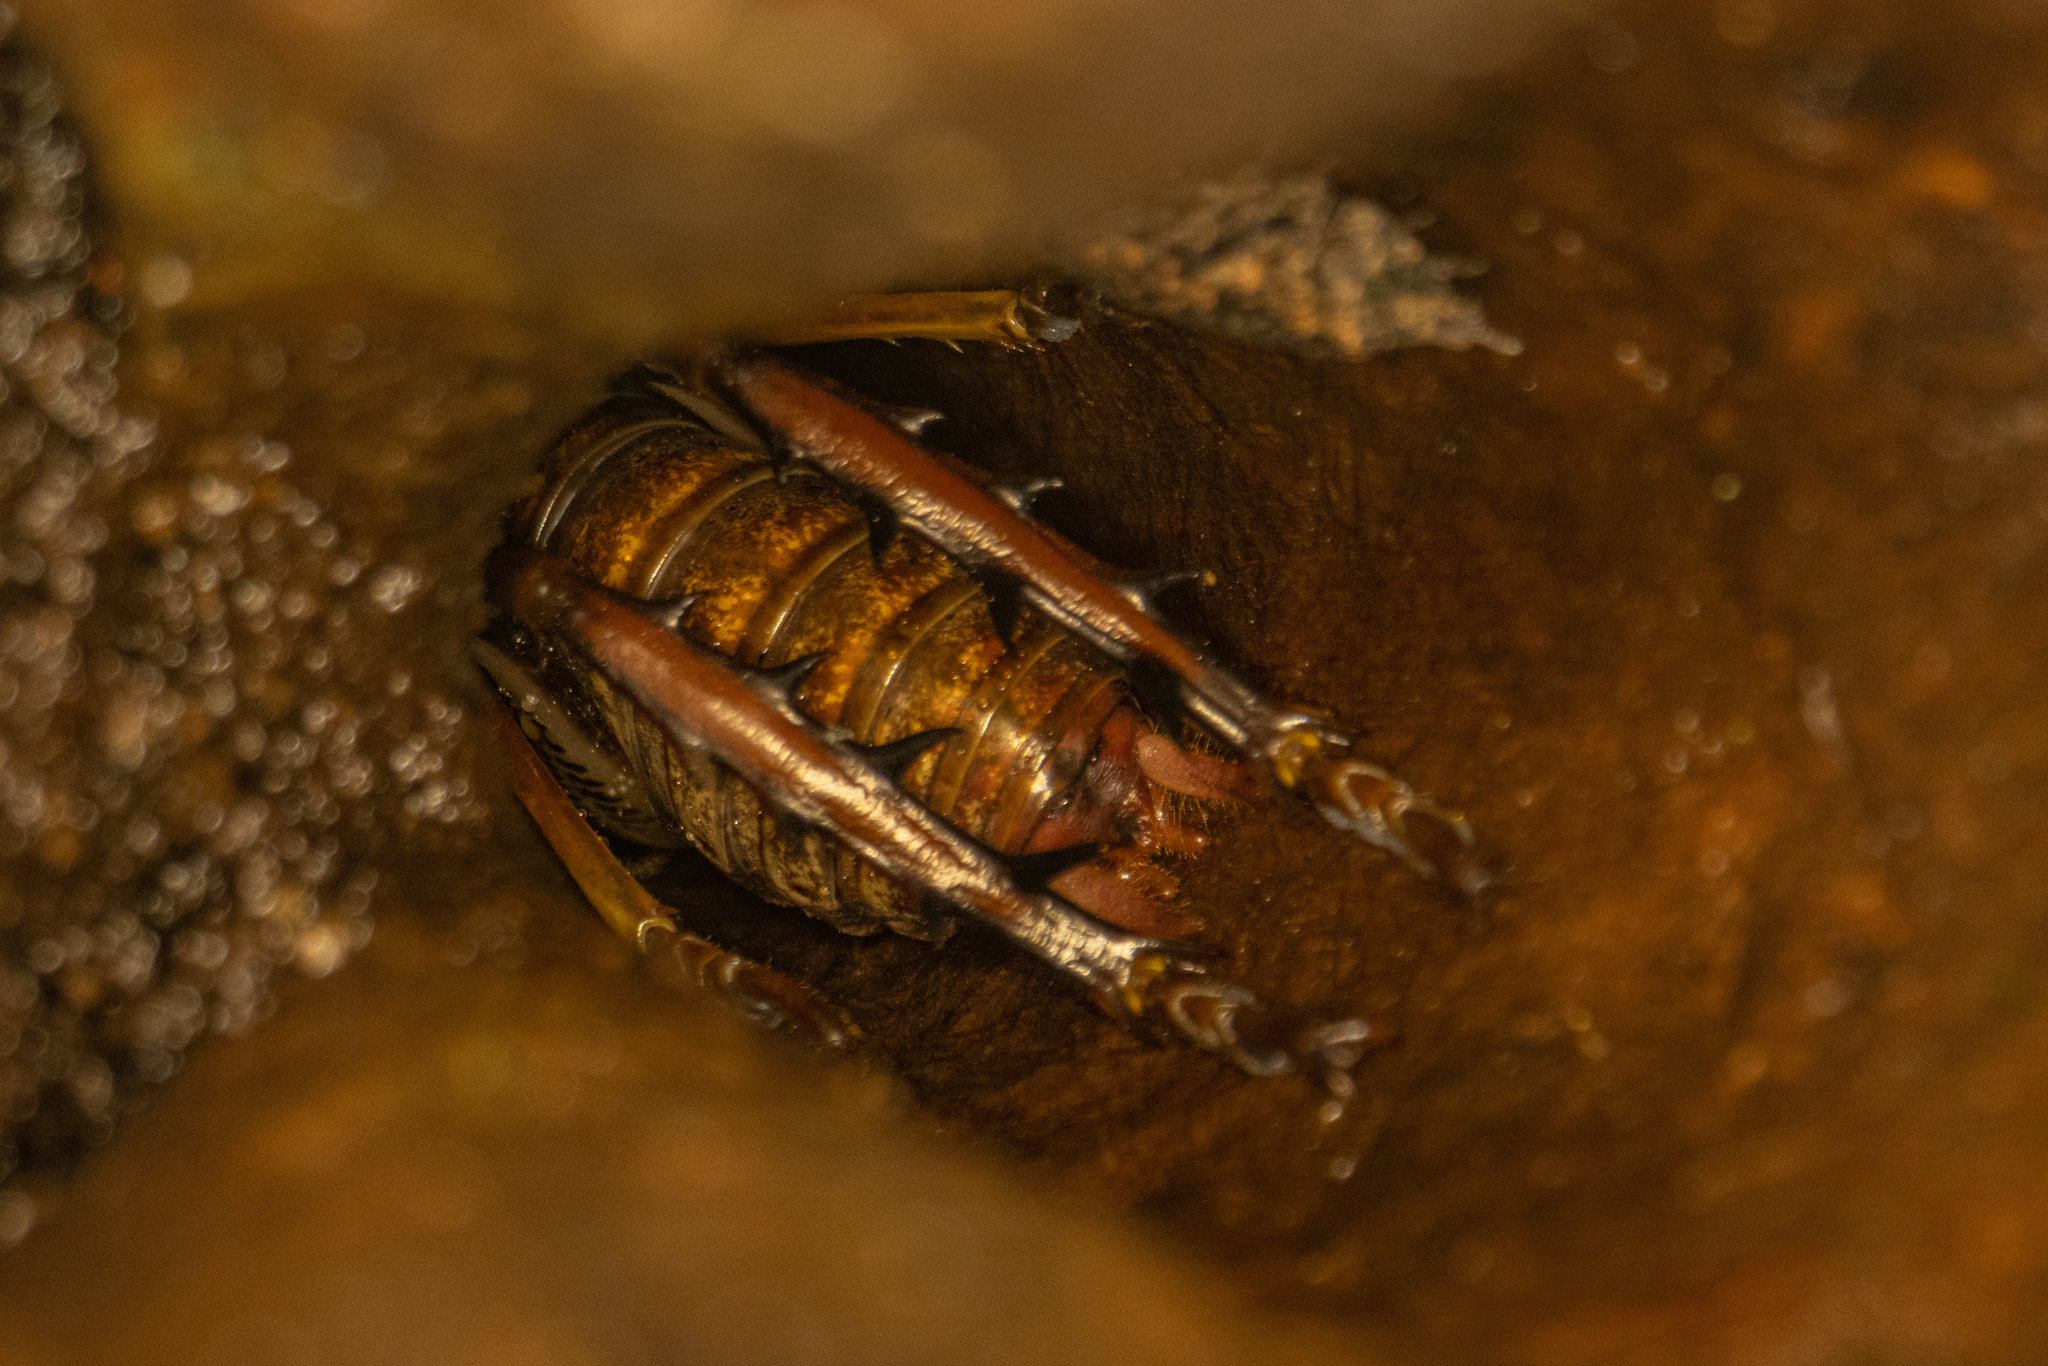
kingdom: Animalia
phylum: Arthropoda
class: Insecta
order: Orthoptera
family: Anostostomatidae
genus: Hemideina
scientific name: Hemideina thoracica
